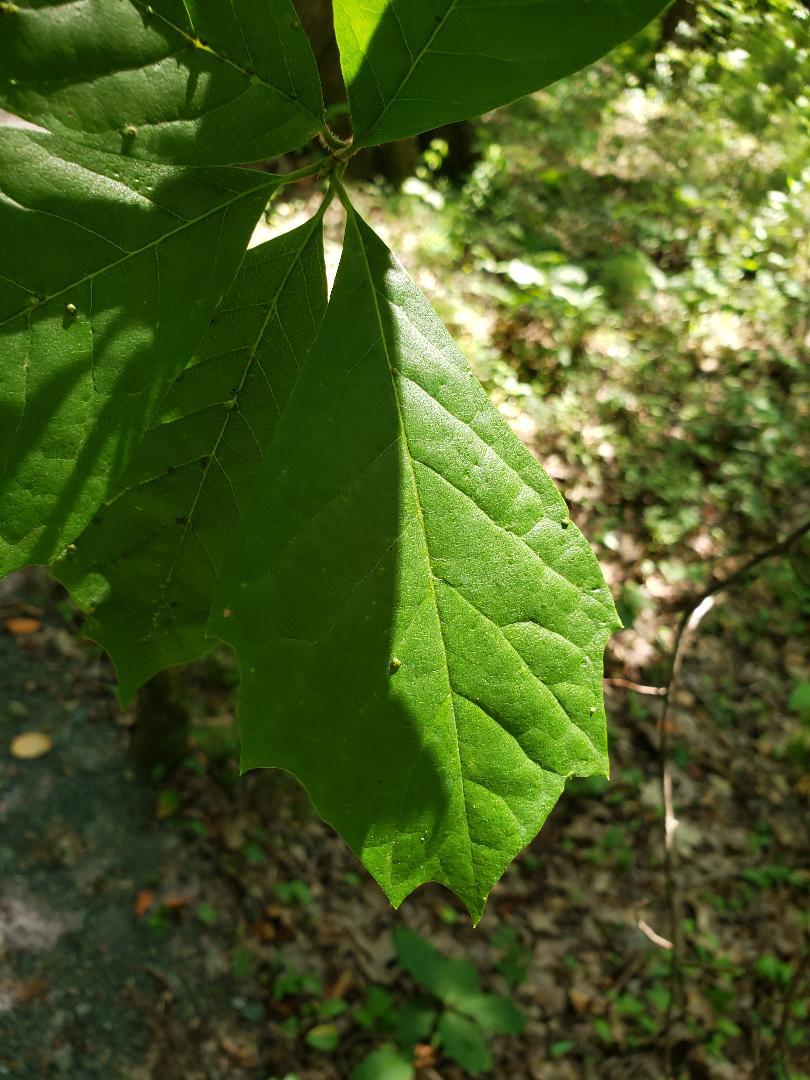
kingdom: Plantae
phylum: Tracheophyta
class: Magnoliopsida
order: Cornales
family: Nyssaceae
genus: Nyssa
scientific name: Nyssa sylvatica
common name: Black tupelo
